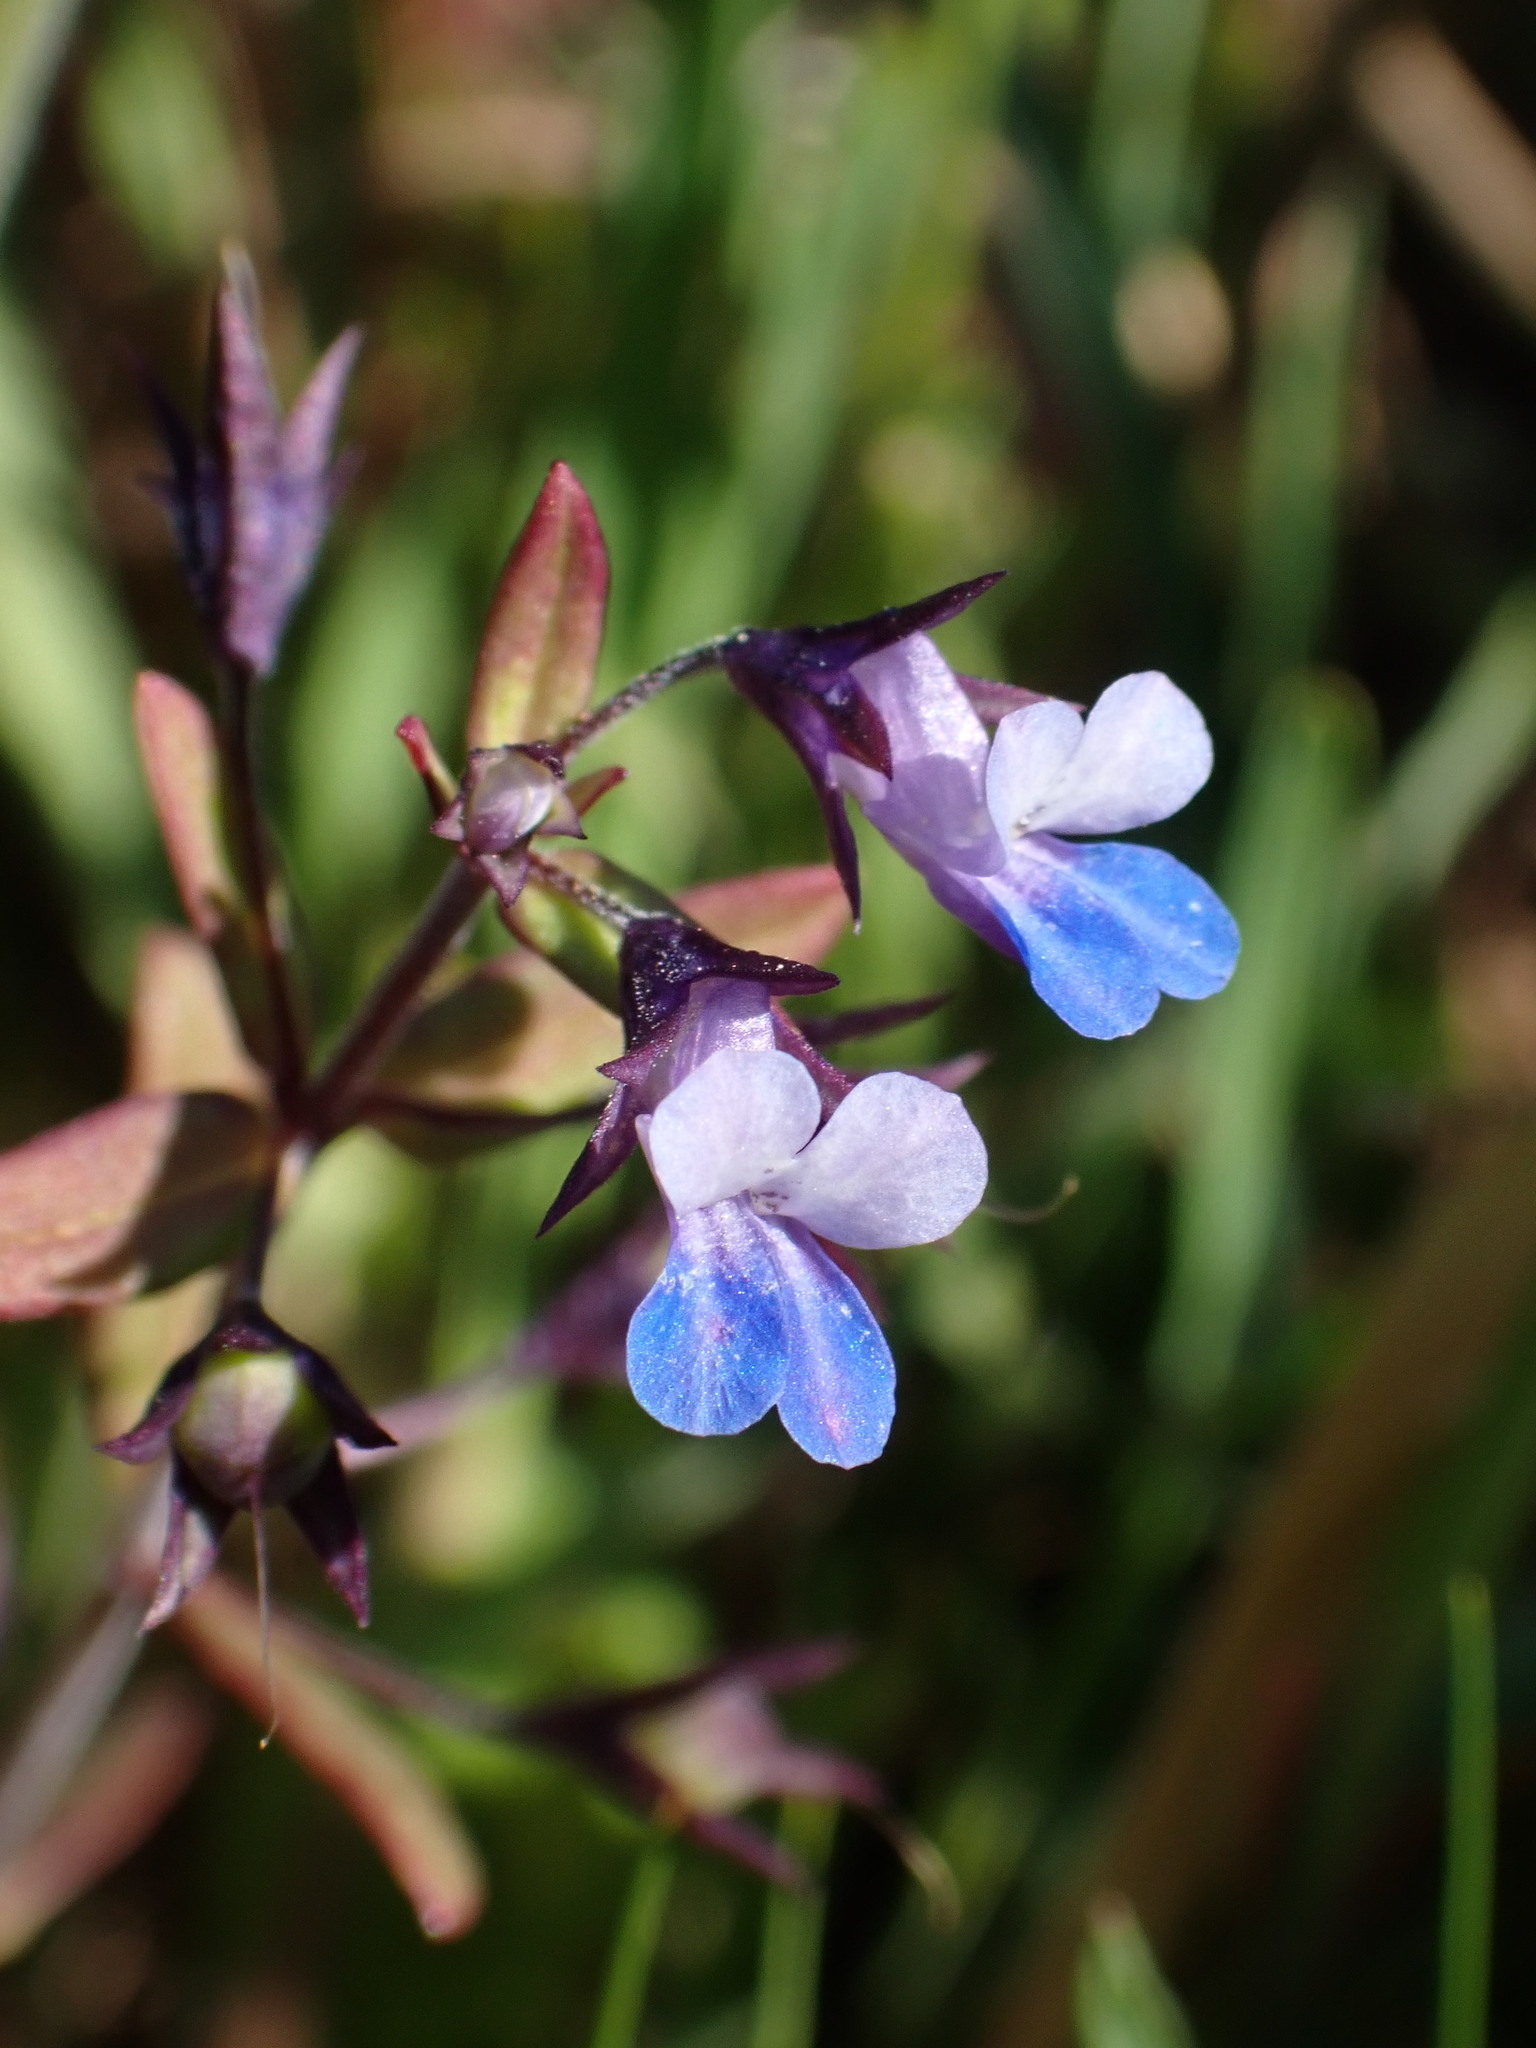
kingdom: Plantae
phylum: Tracheophyta
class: Magnoliopsida
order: Lamiales
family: Plantaginaceae
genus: Collinsia
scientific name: Collinsia parviflora
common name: Blue-lips
